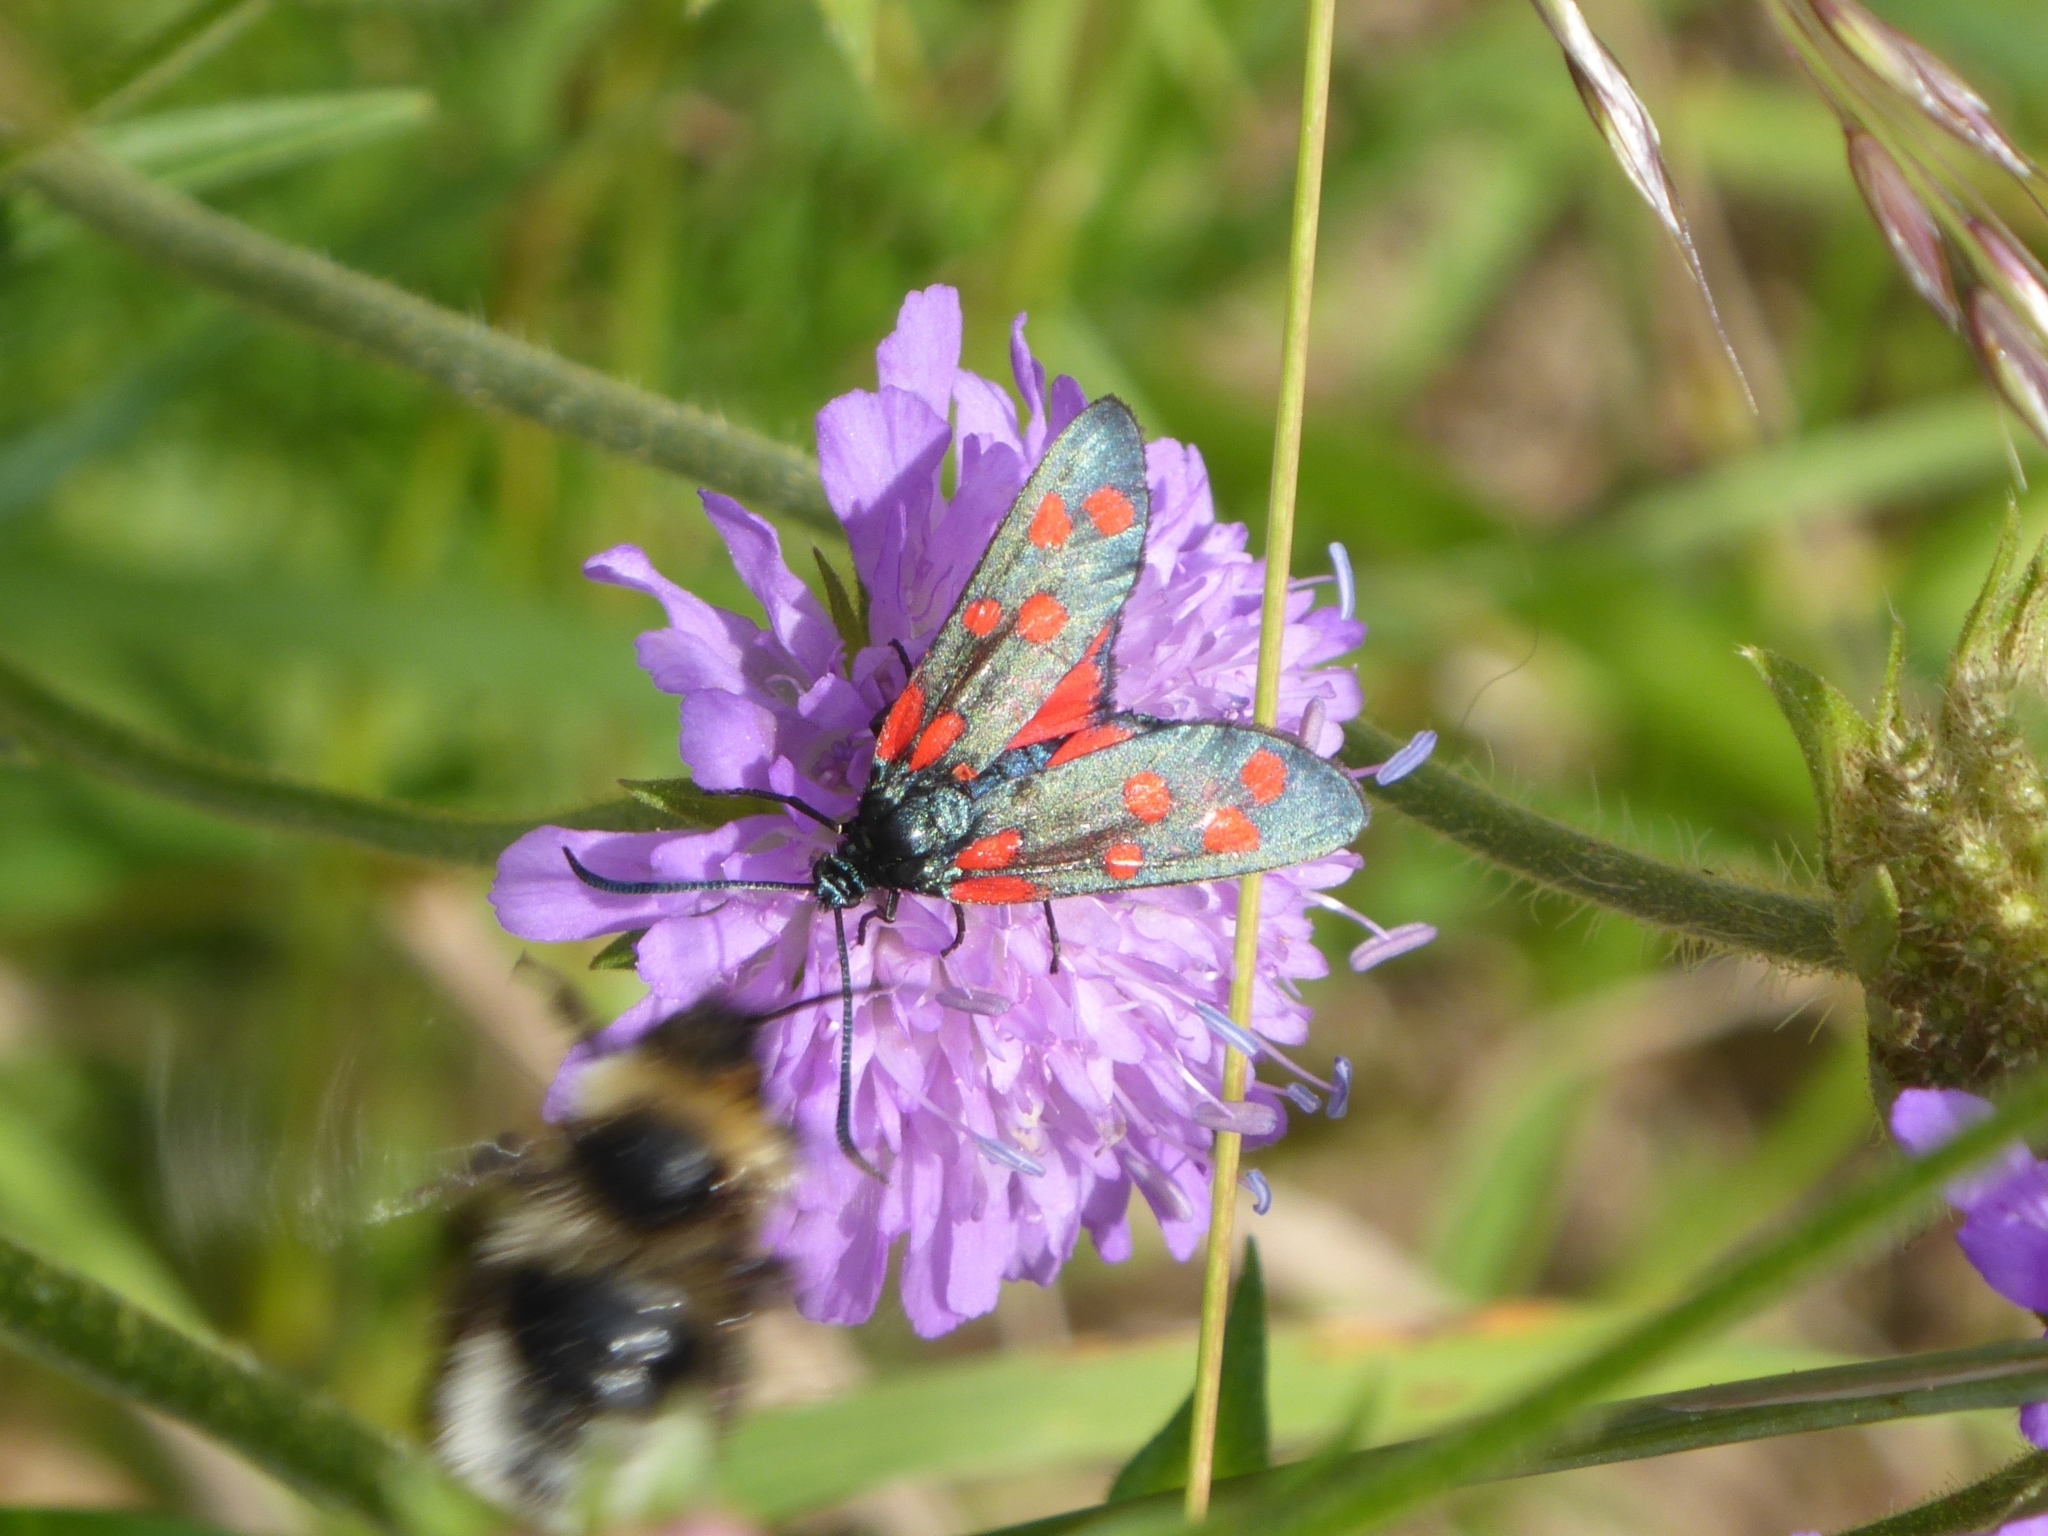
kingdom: Animalia
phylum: Arthropoda
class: Insecta
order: Lepidoptera
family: Zygaenidae
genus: Zygaena
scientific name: Zygaena transalpina
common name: Southern six spot burnet
